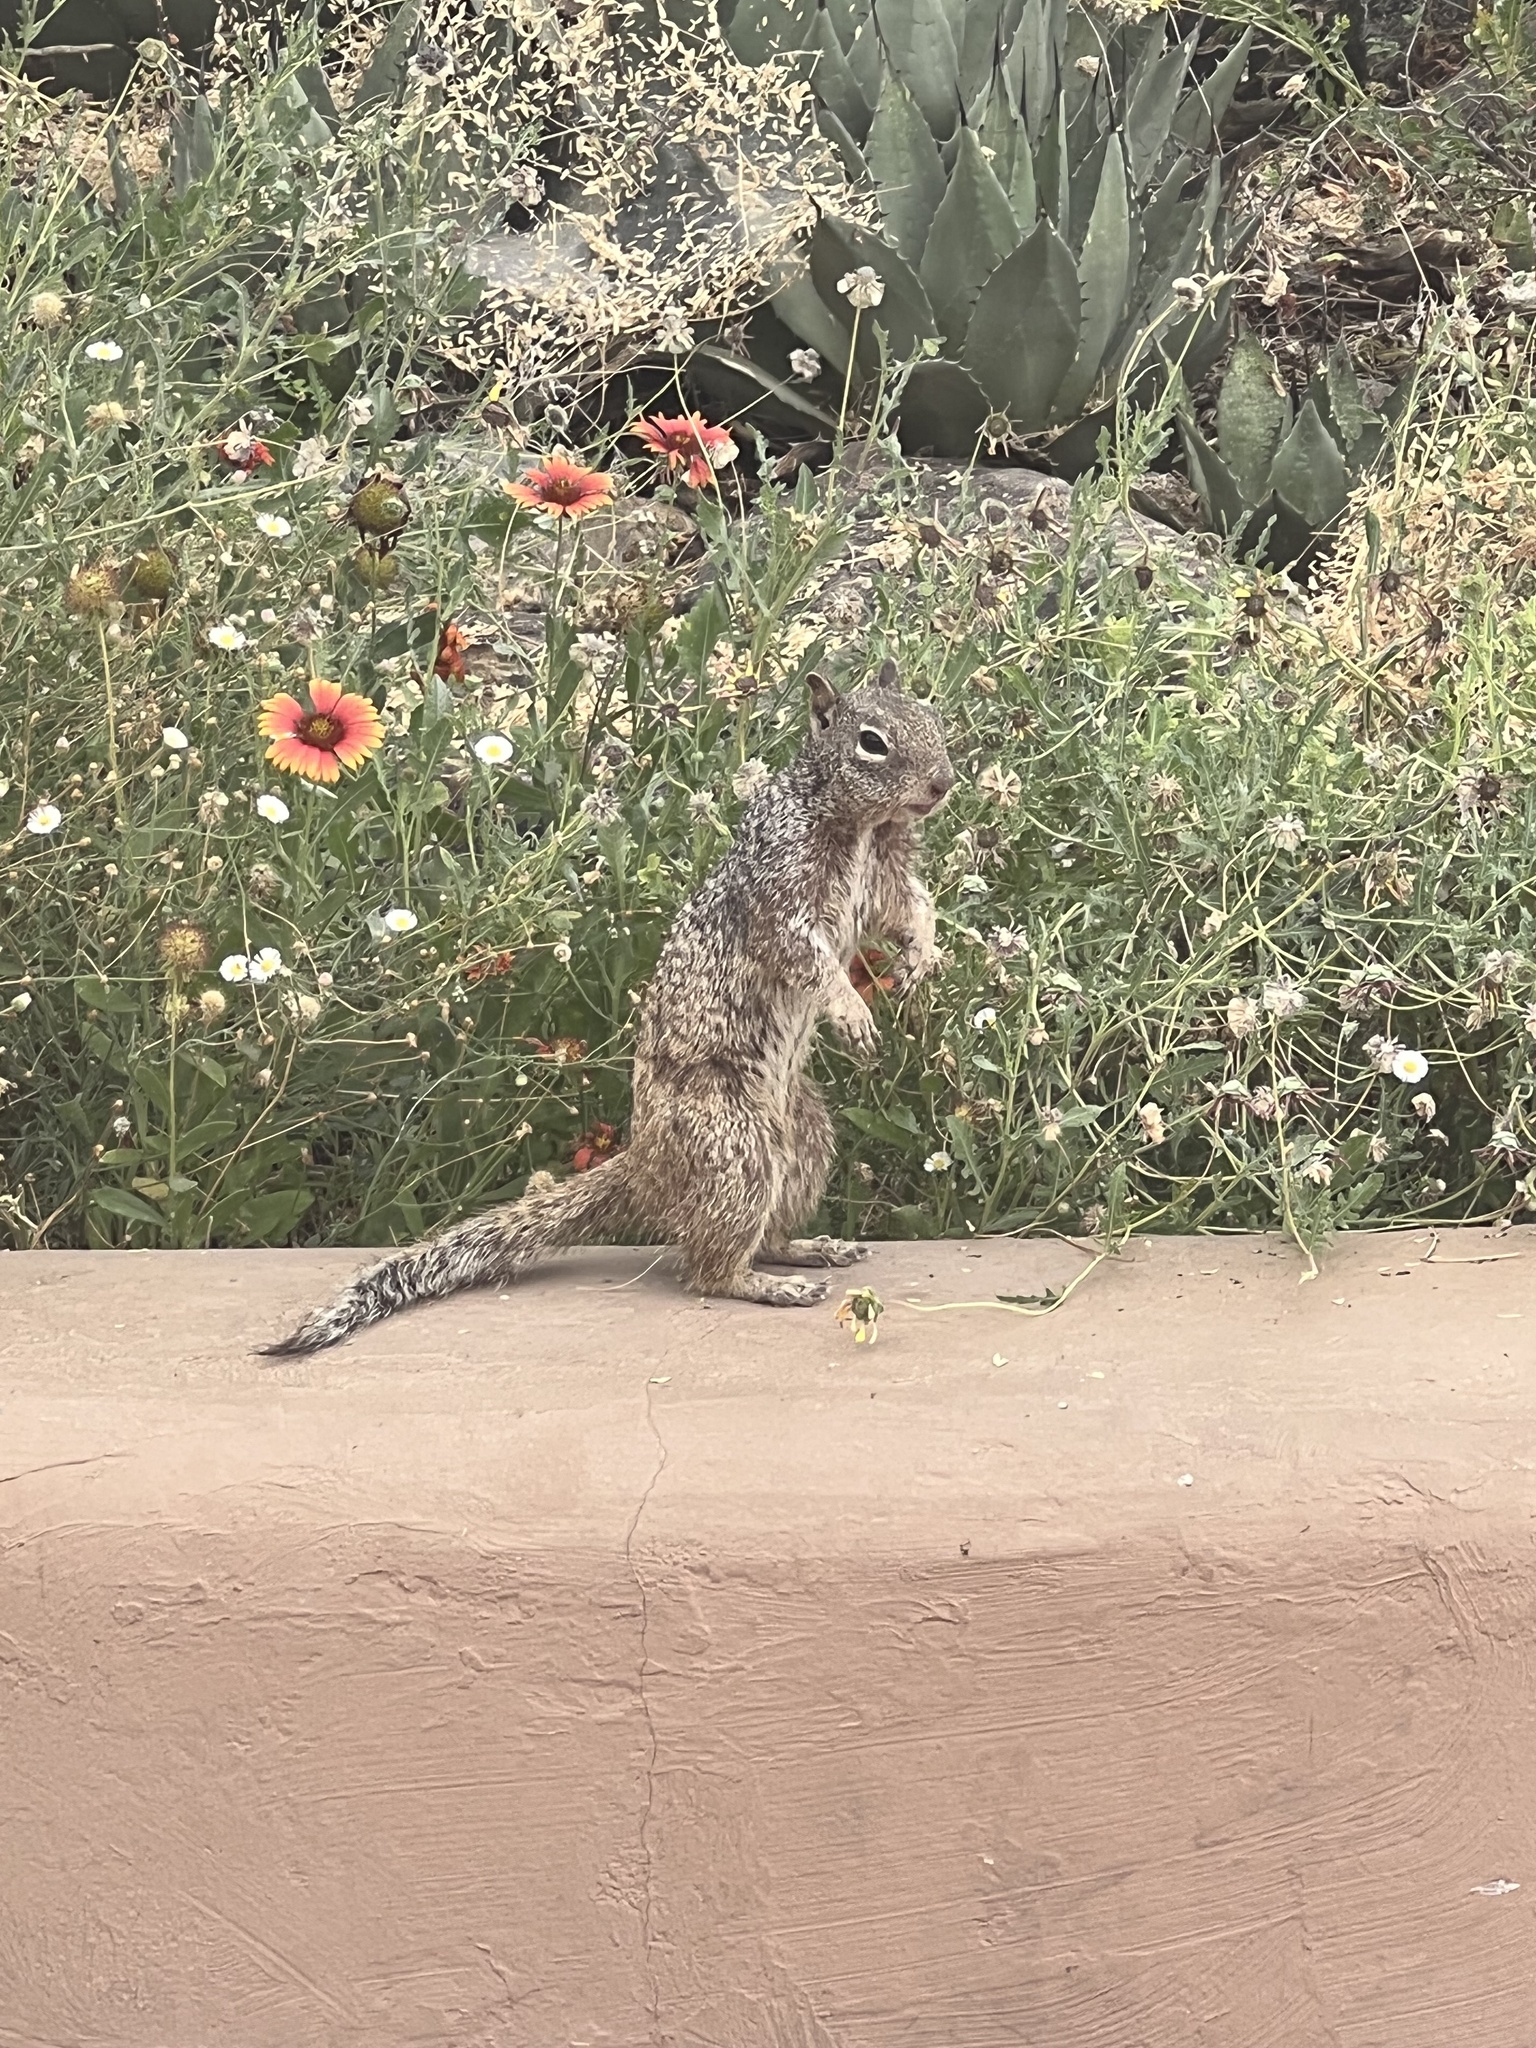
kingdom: Animalia
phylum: Chordata
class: Mammalia
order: Rodentia
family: Sciuridae
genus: Otospermophilus
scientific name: Otospermophilus variegatus
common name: Rock squirrel
